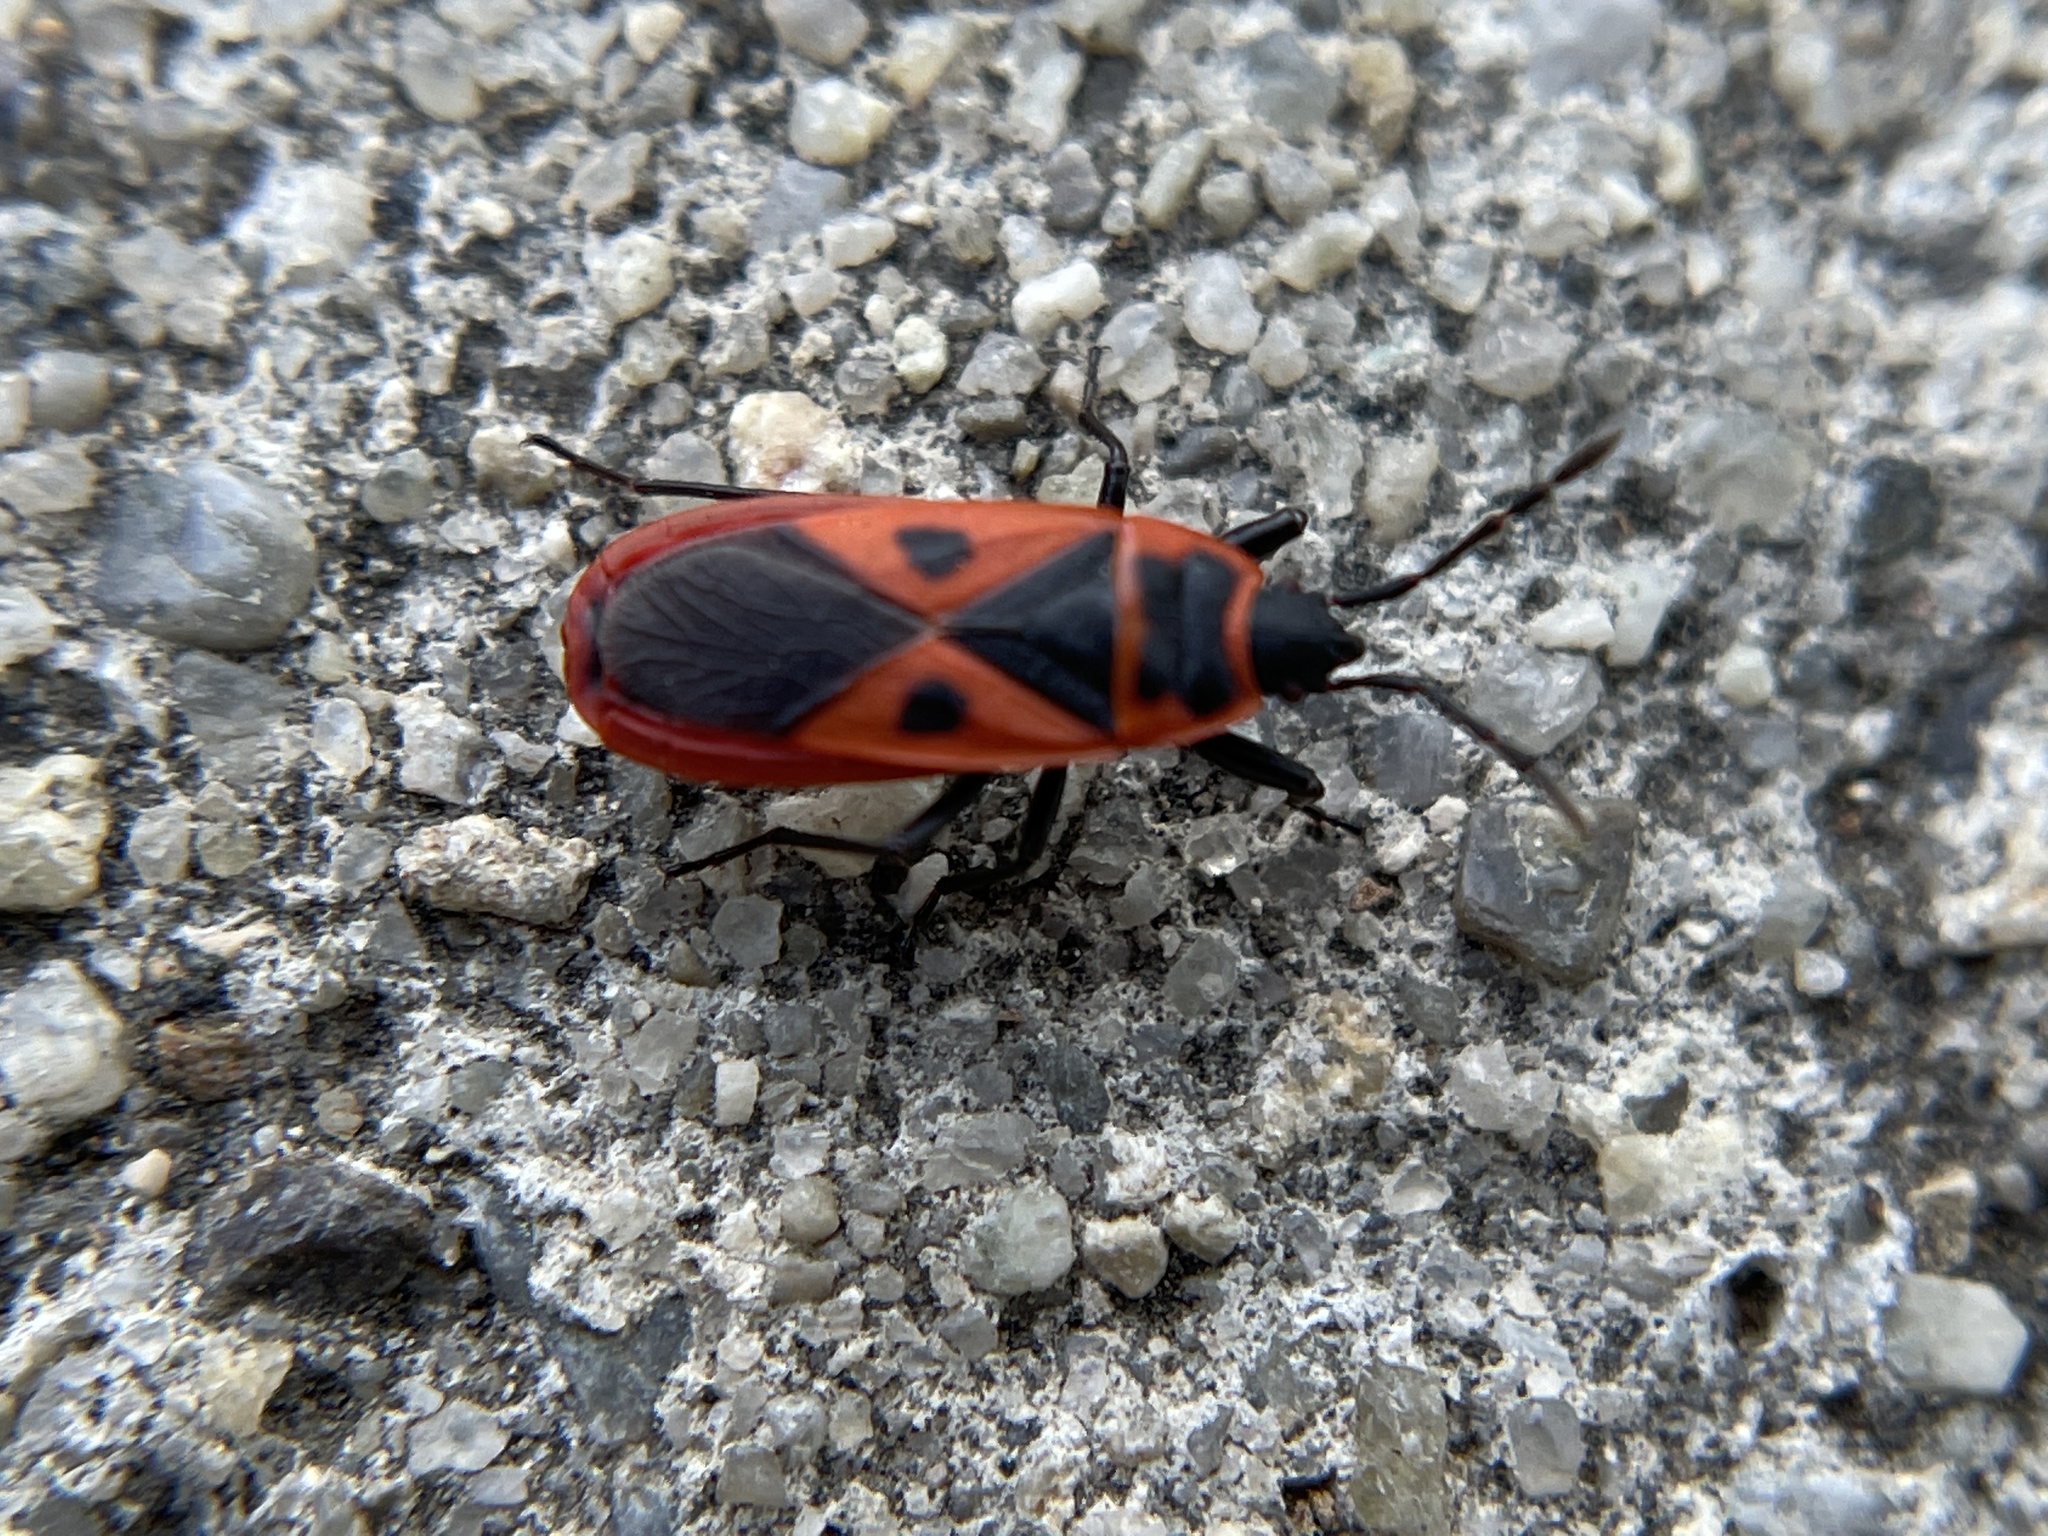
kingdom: Animalia
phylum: Arthropoda
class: Insecta
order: Hemiptera
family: Pyrrhocoridae
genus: Scantius
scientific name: Scantius aegyptius
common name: Red bug
